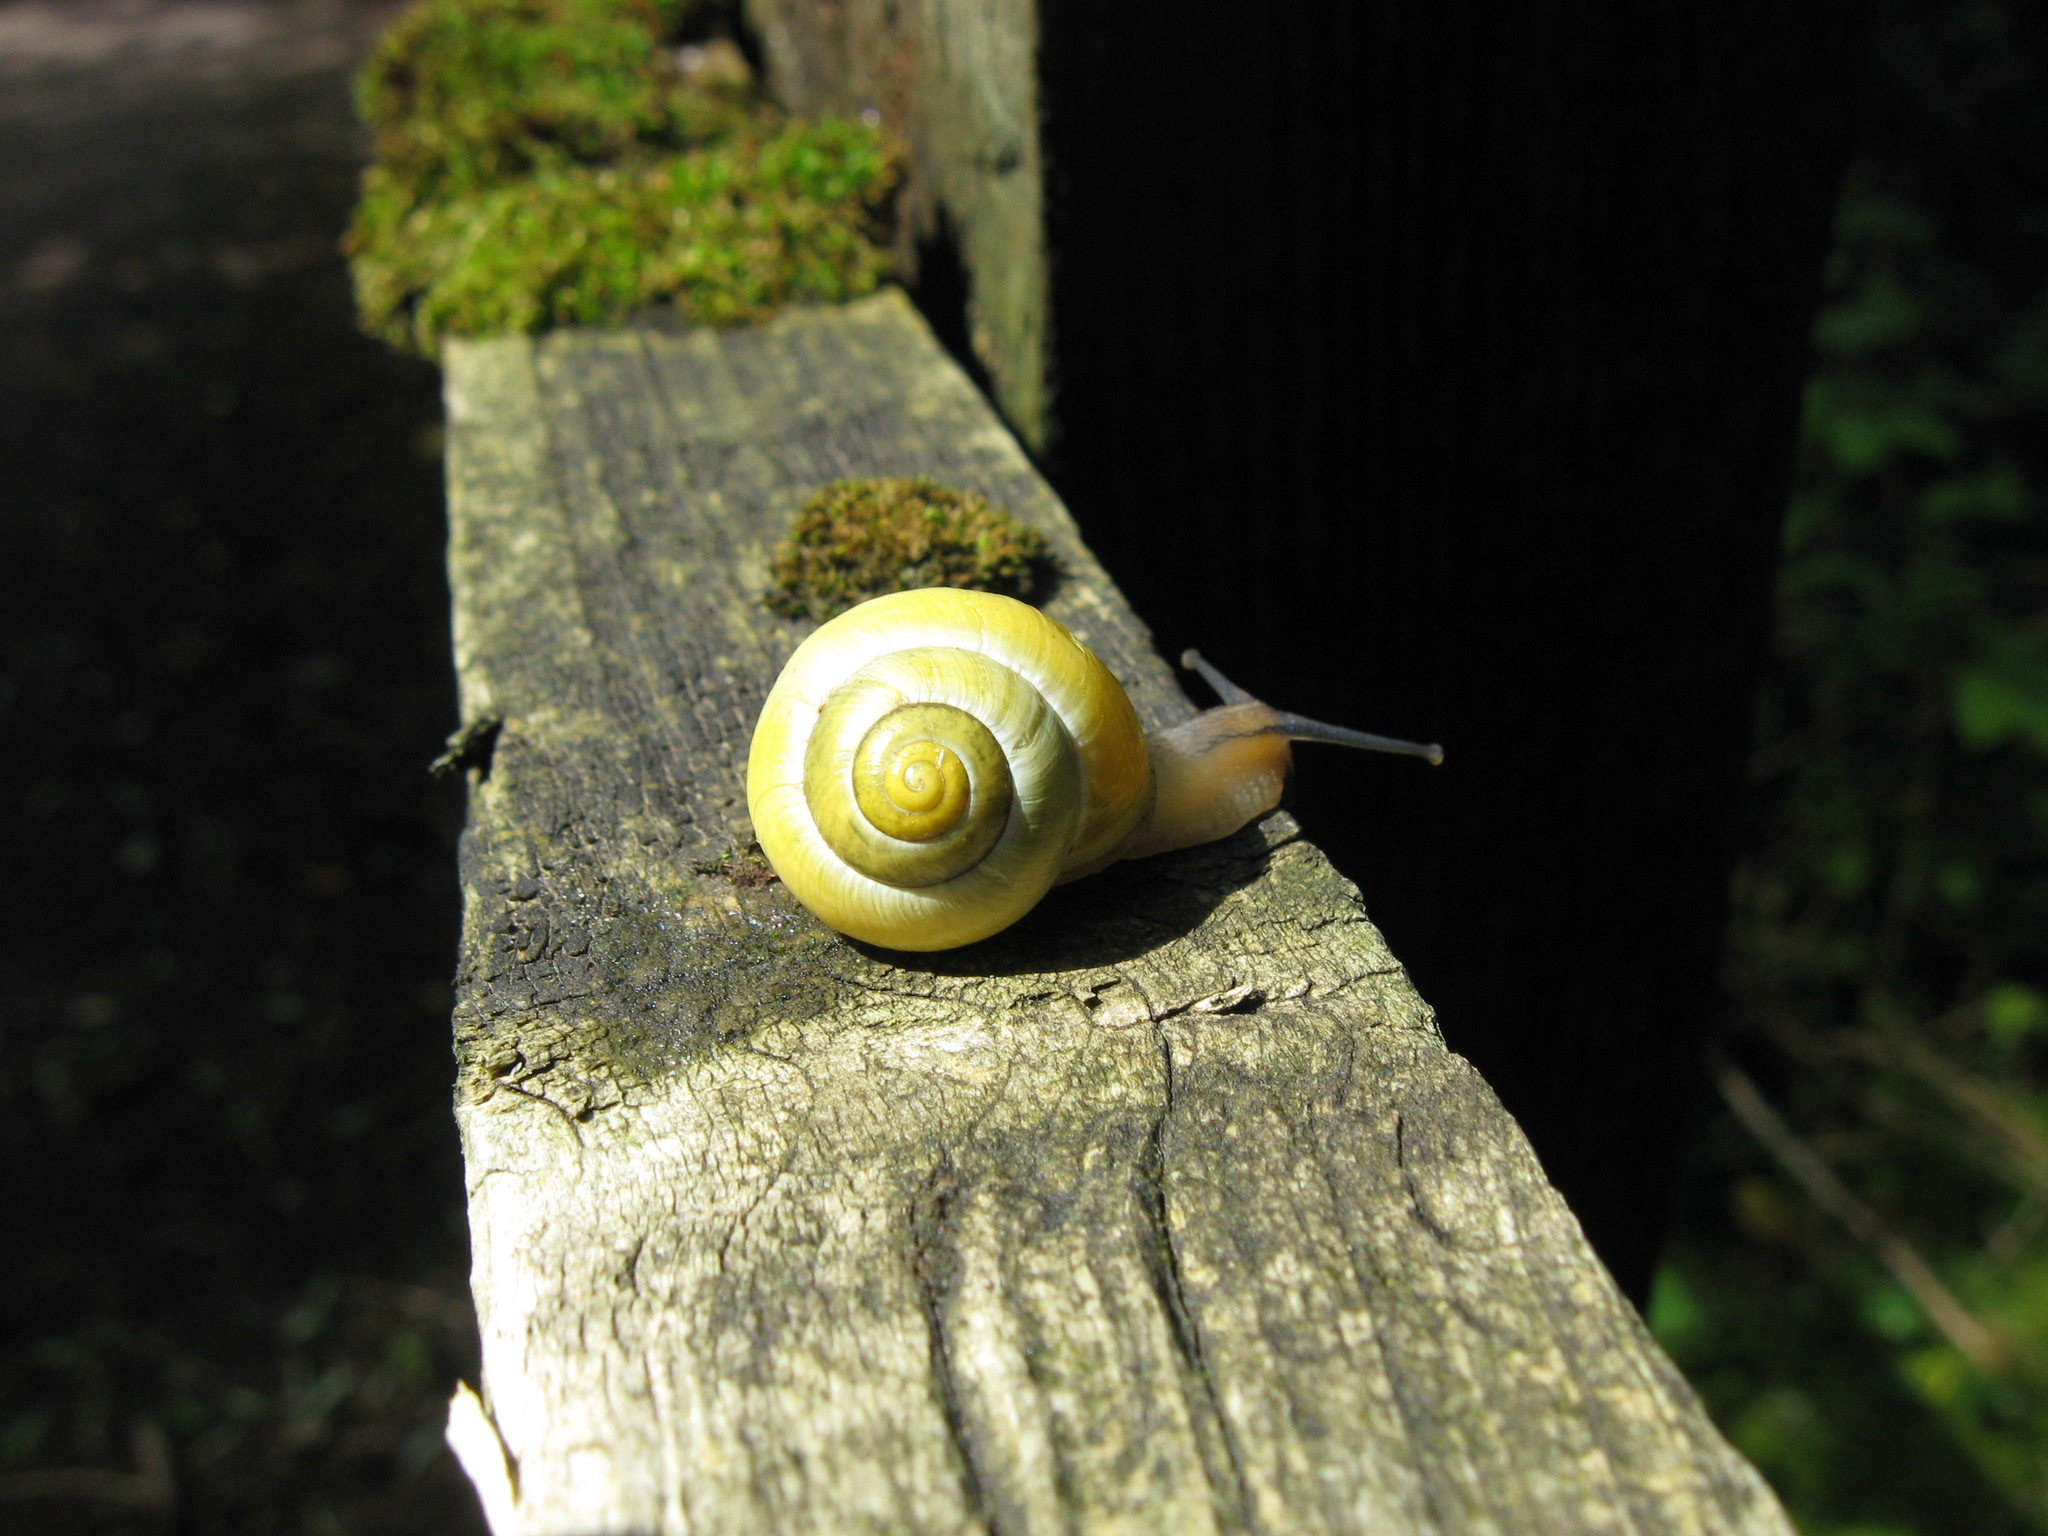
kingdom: Animalia
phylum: Mollusca
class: Gastropoda
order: Stylommatophora
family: Helicidae
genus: Cepaea
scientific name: Cepaea hortensis
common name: White-lip gardensnail
